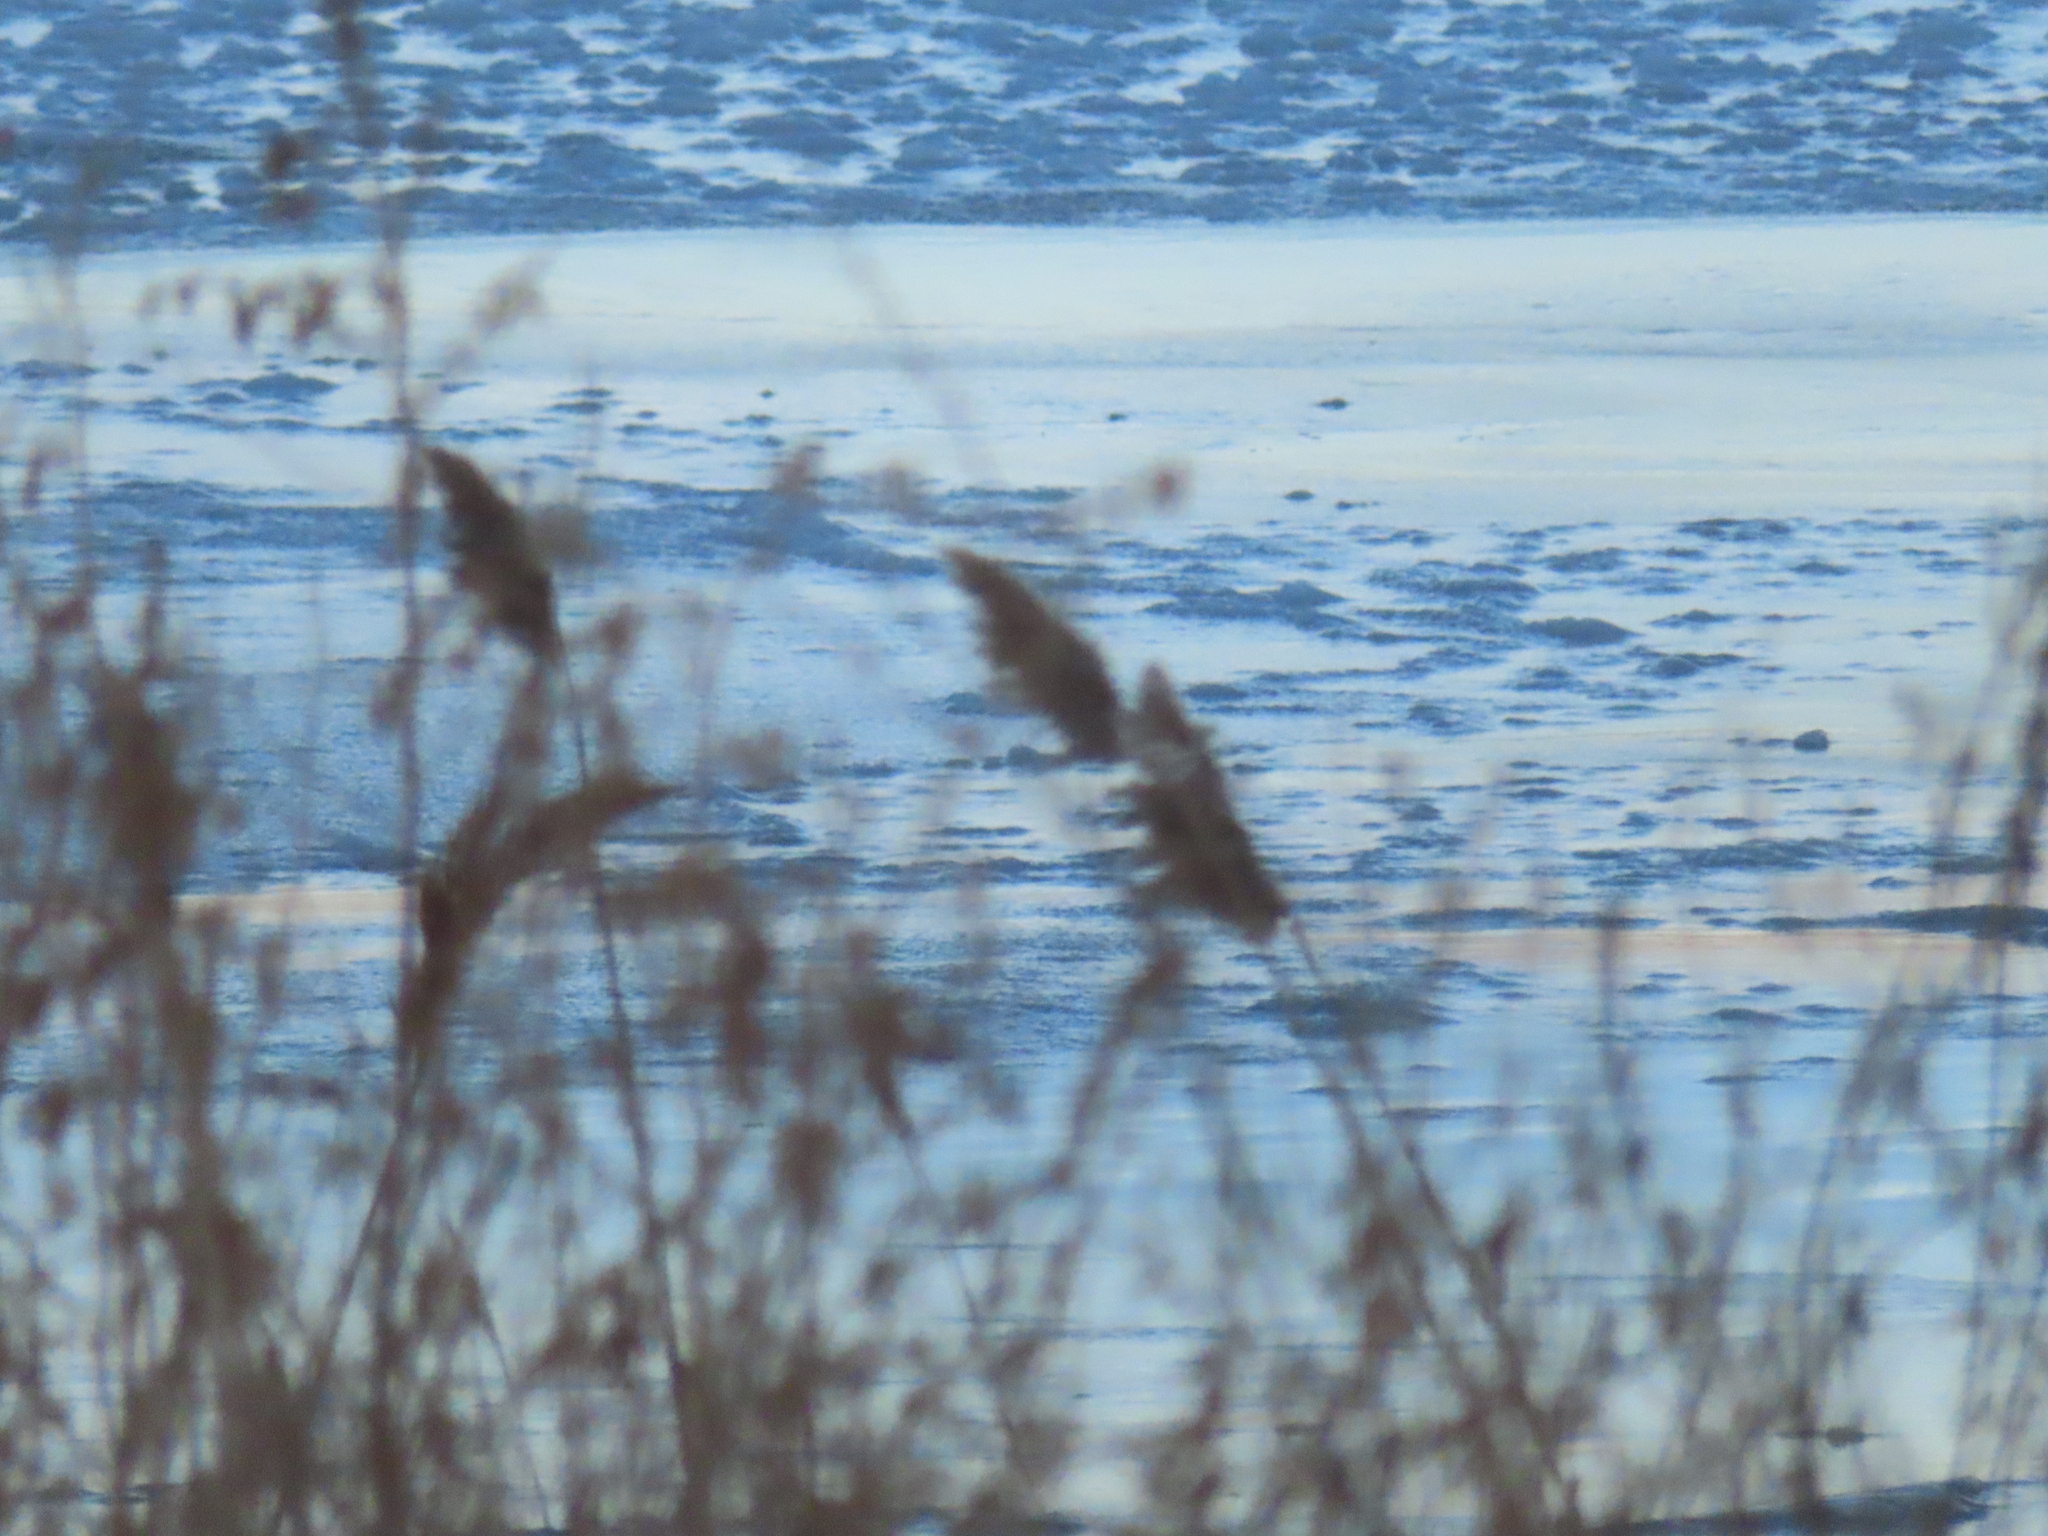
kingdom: Plantae
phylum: Tracheophyta
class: Liliopsida
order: Poales
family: Poaceae
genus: Phragmites
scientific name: Phragmites australis
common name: Common reed
